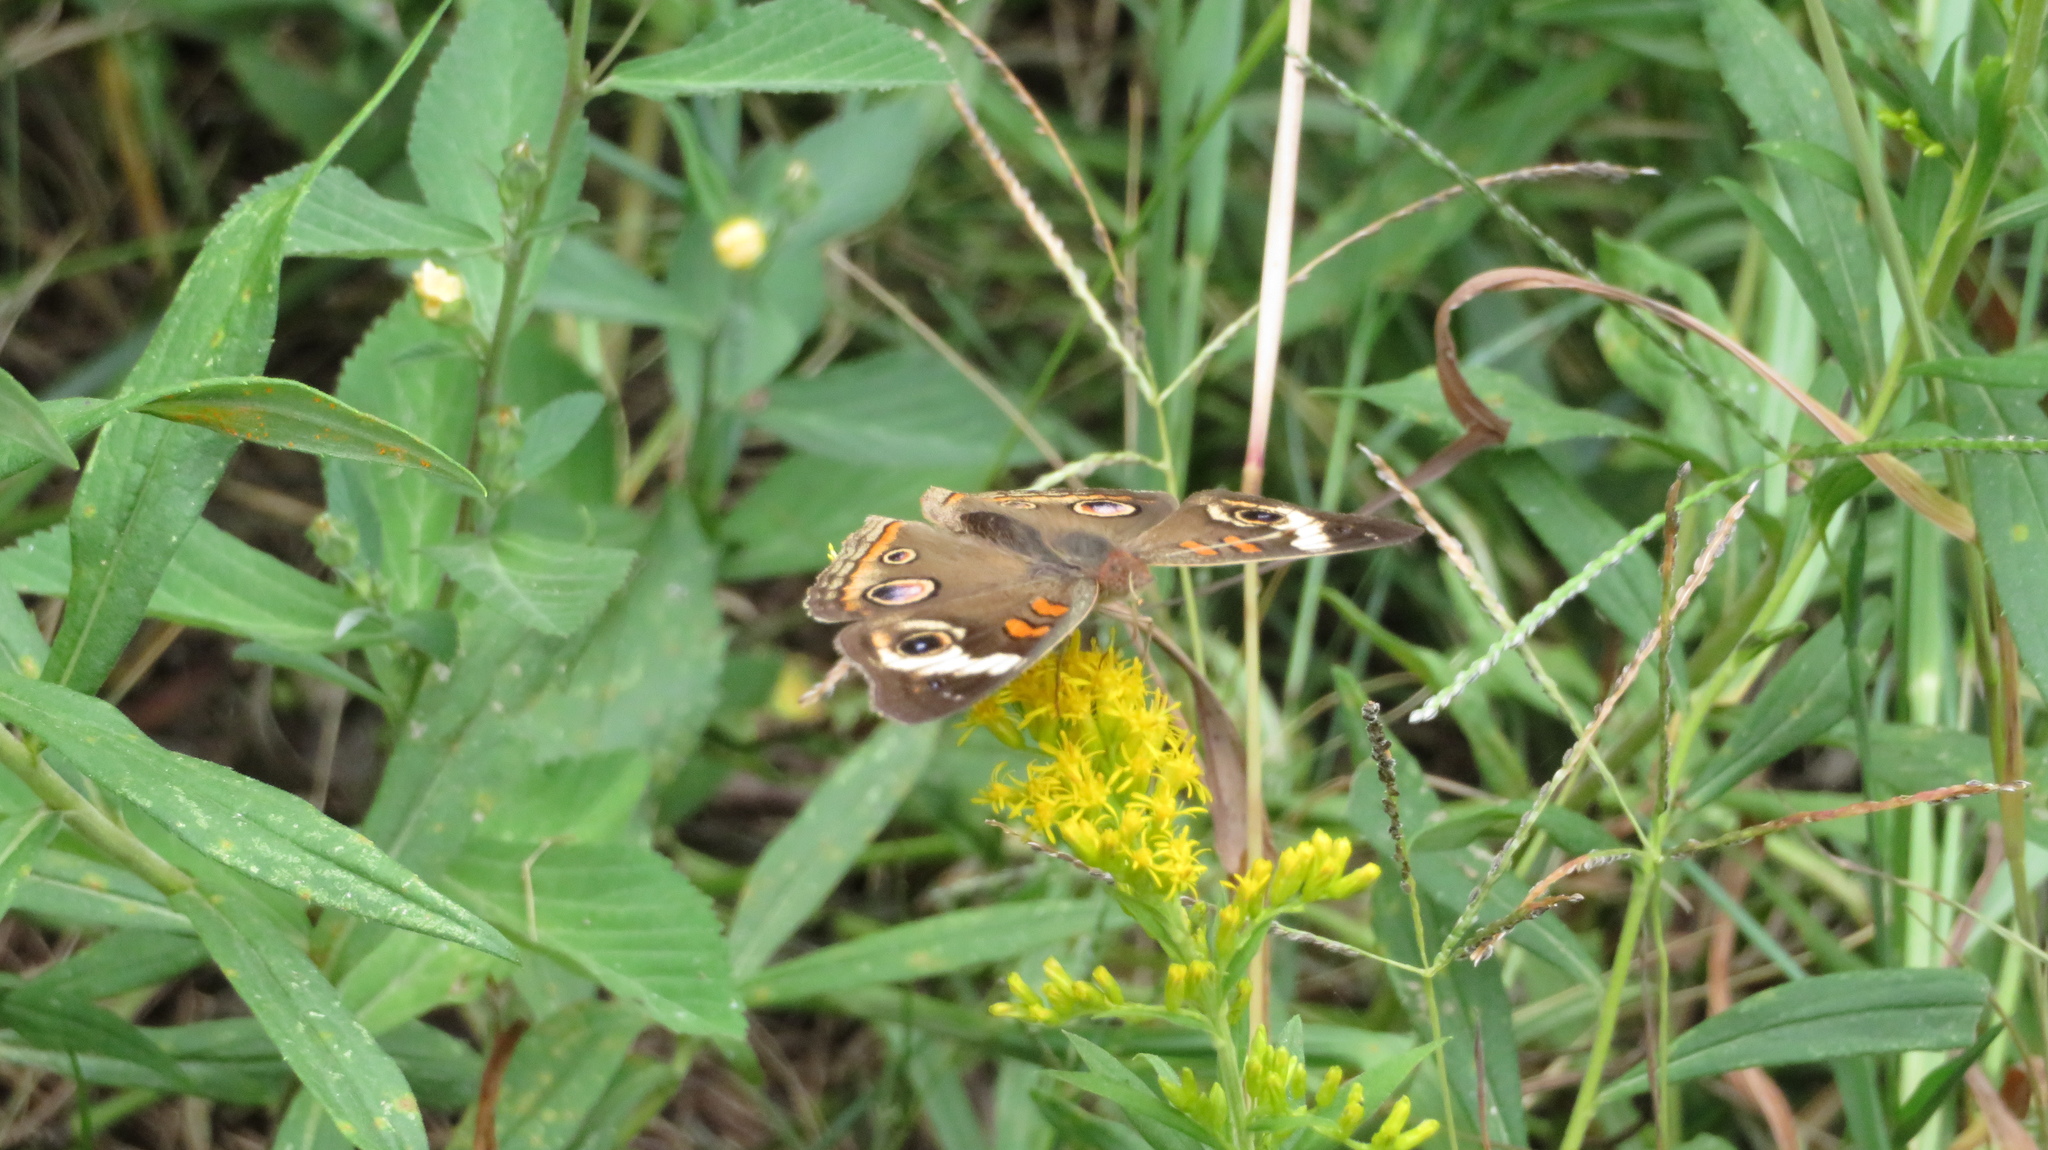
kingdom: Animalia
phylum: Arthropoda
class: Insecta
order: Lepidoptera
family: Nymphalidae
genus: Junonia
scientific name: Junonia coenia
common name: Common buckeye
